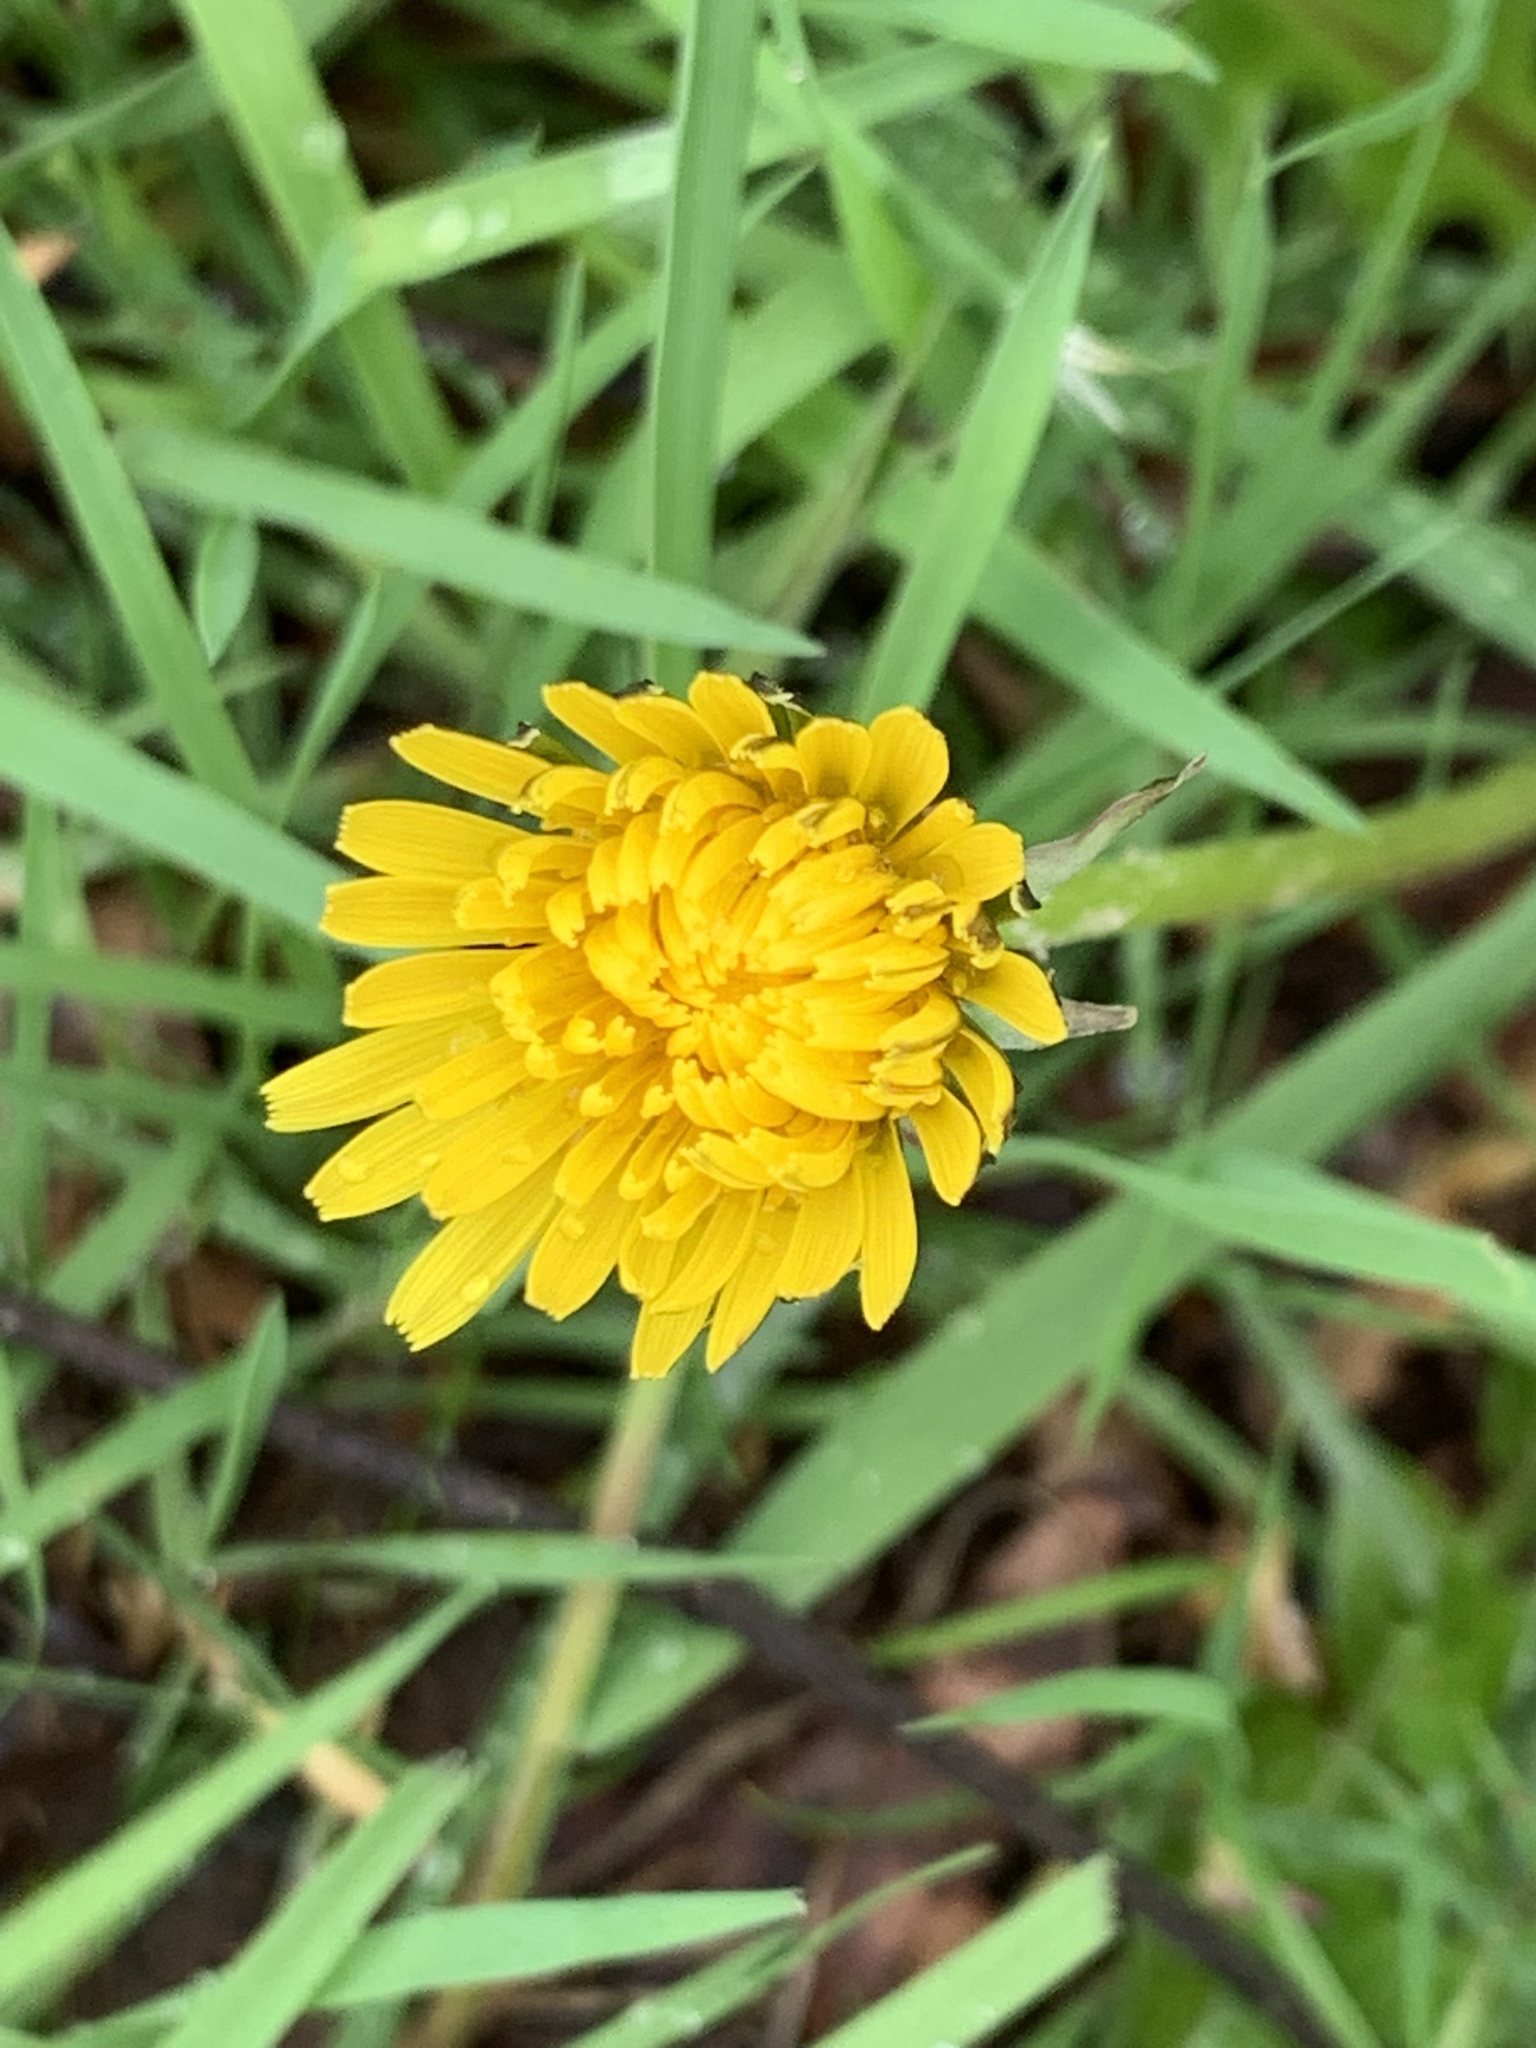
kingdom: Plantae
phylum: Tracheophyta
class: Magnoliopsida
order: Asterales
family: Asteraceae
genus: Taraxacum
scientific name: Taraxacum officinale
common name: Common dandelion
